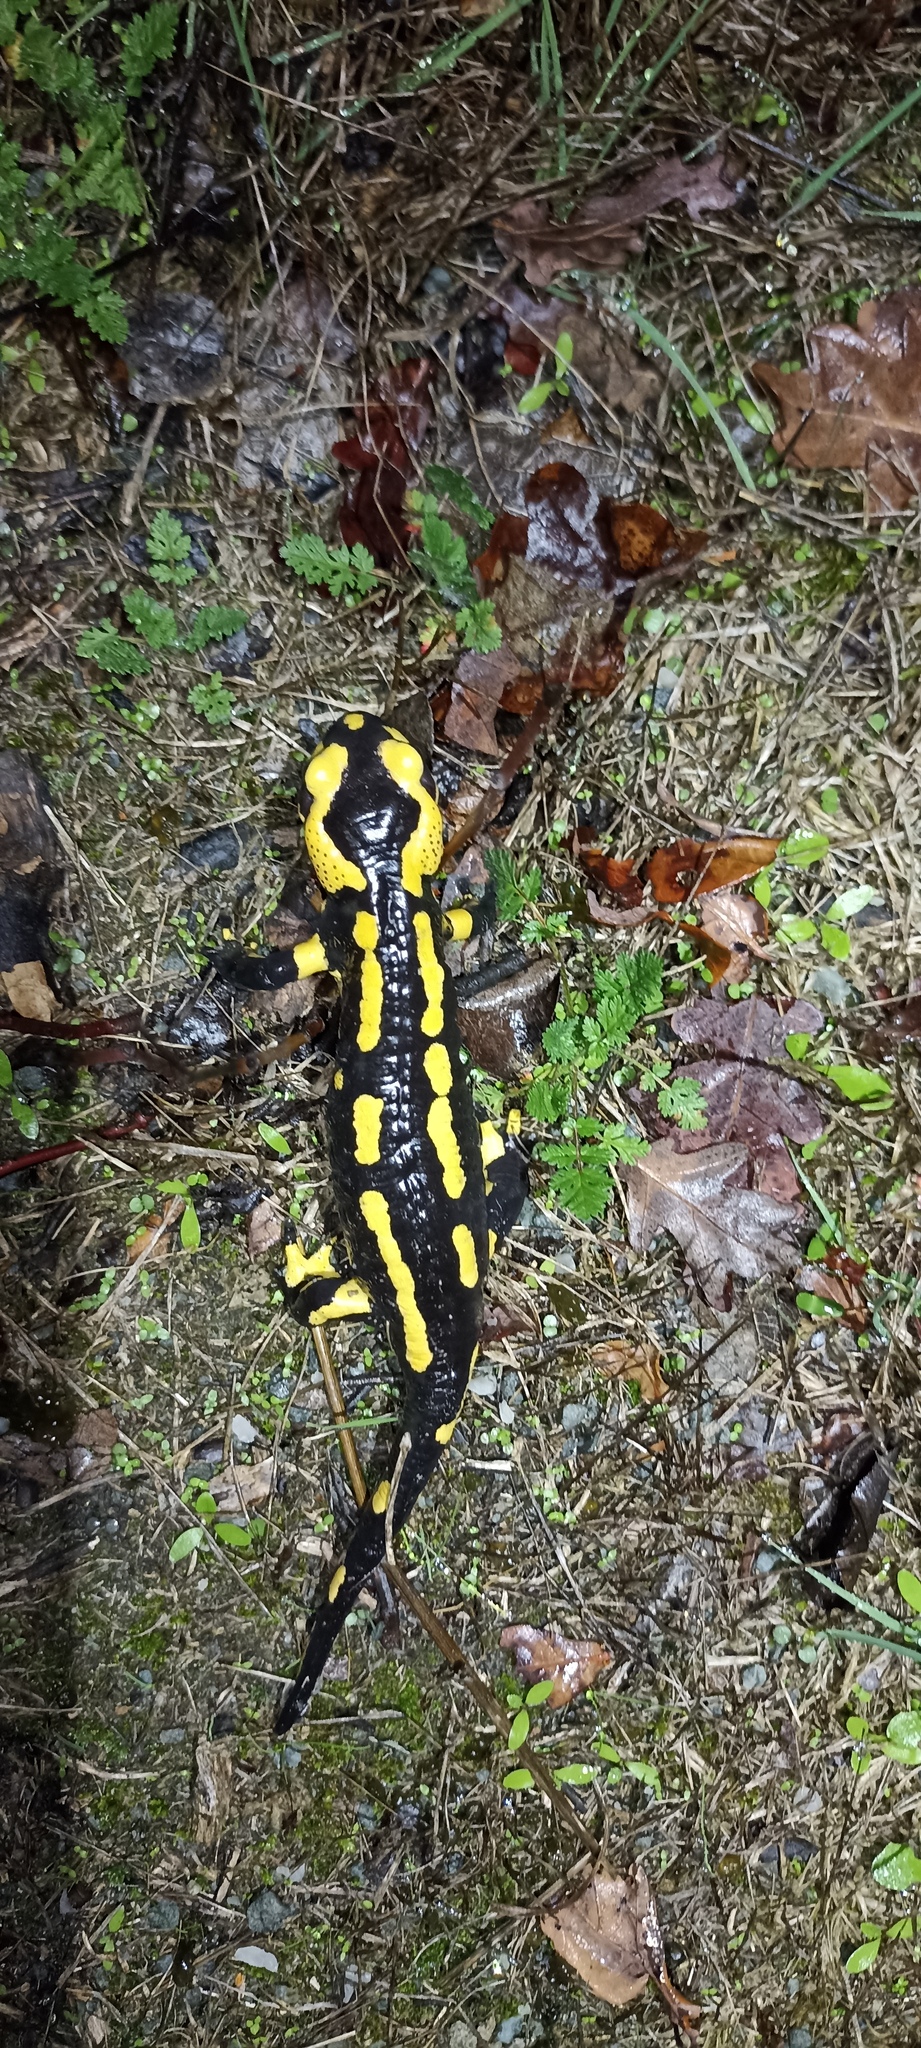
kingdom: Animalia
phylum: Chordata
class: Amphibia
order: Caudata
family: Salamandridae
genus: Salamandra
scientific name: Salamandra salamandra
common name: Fire salamander
